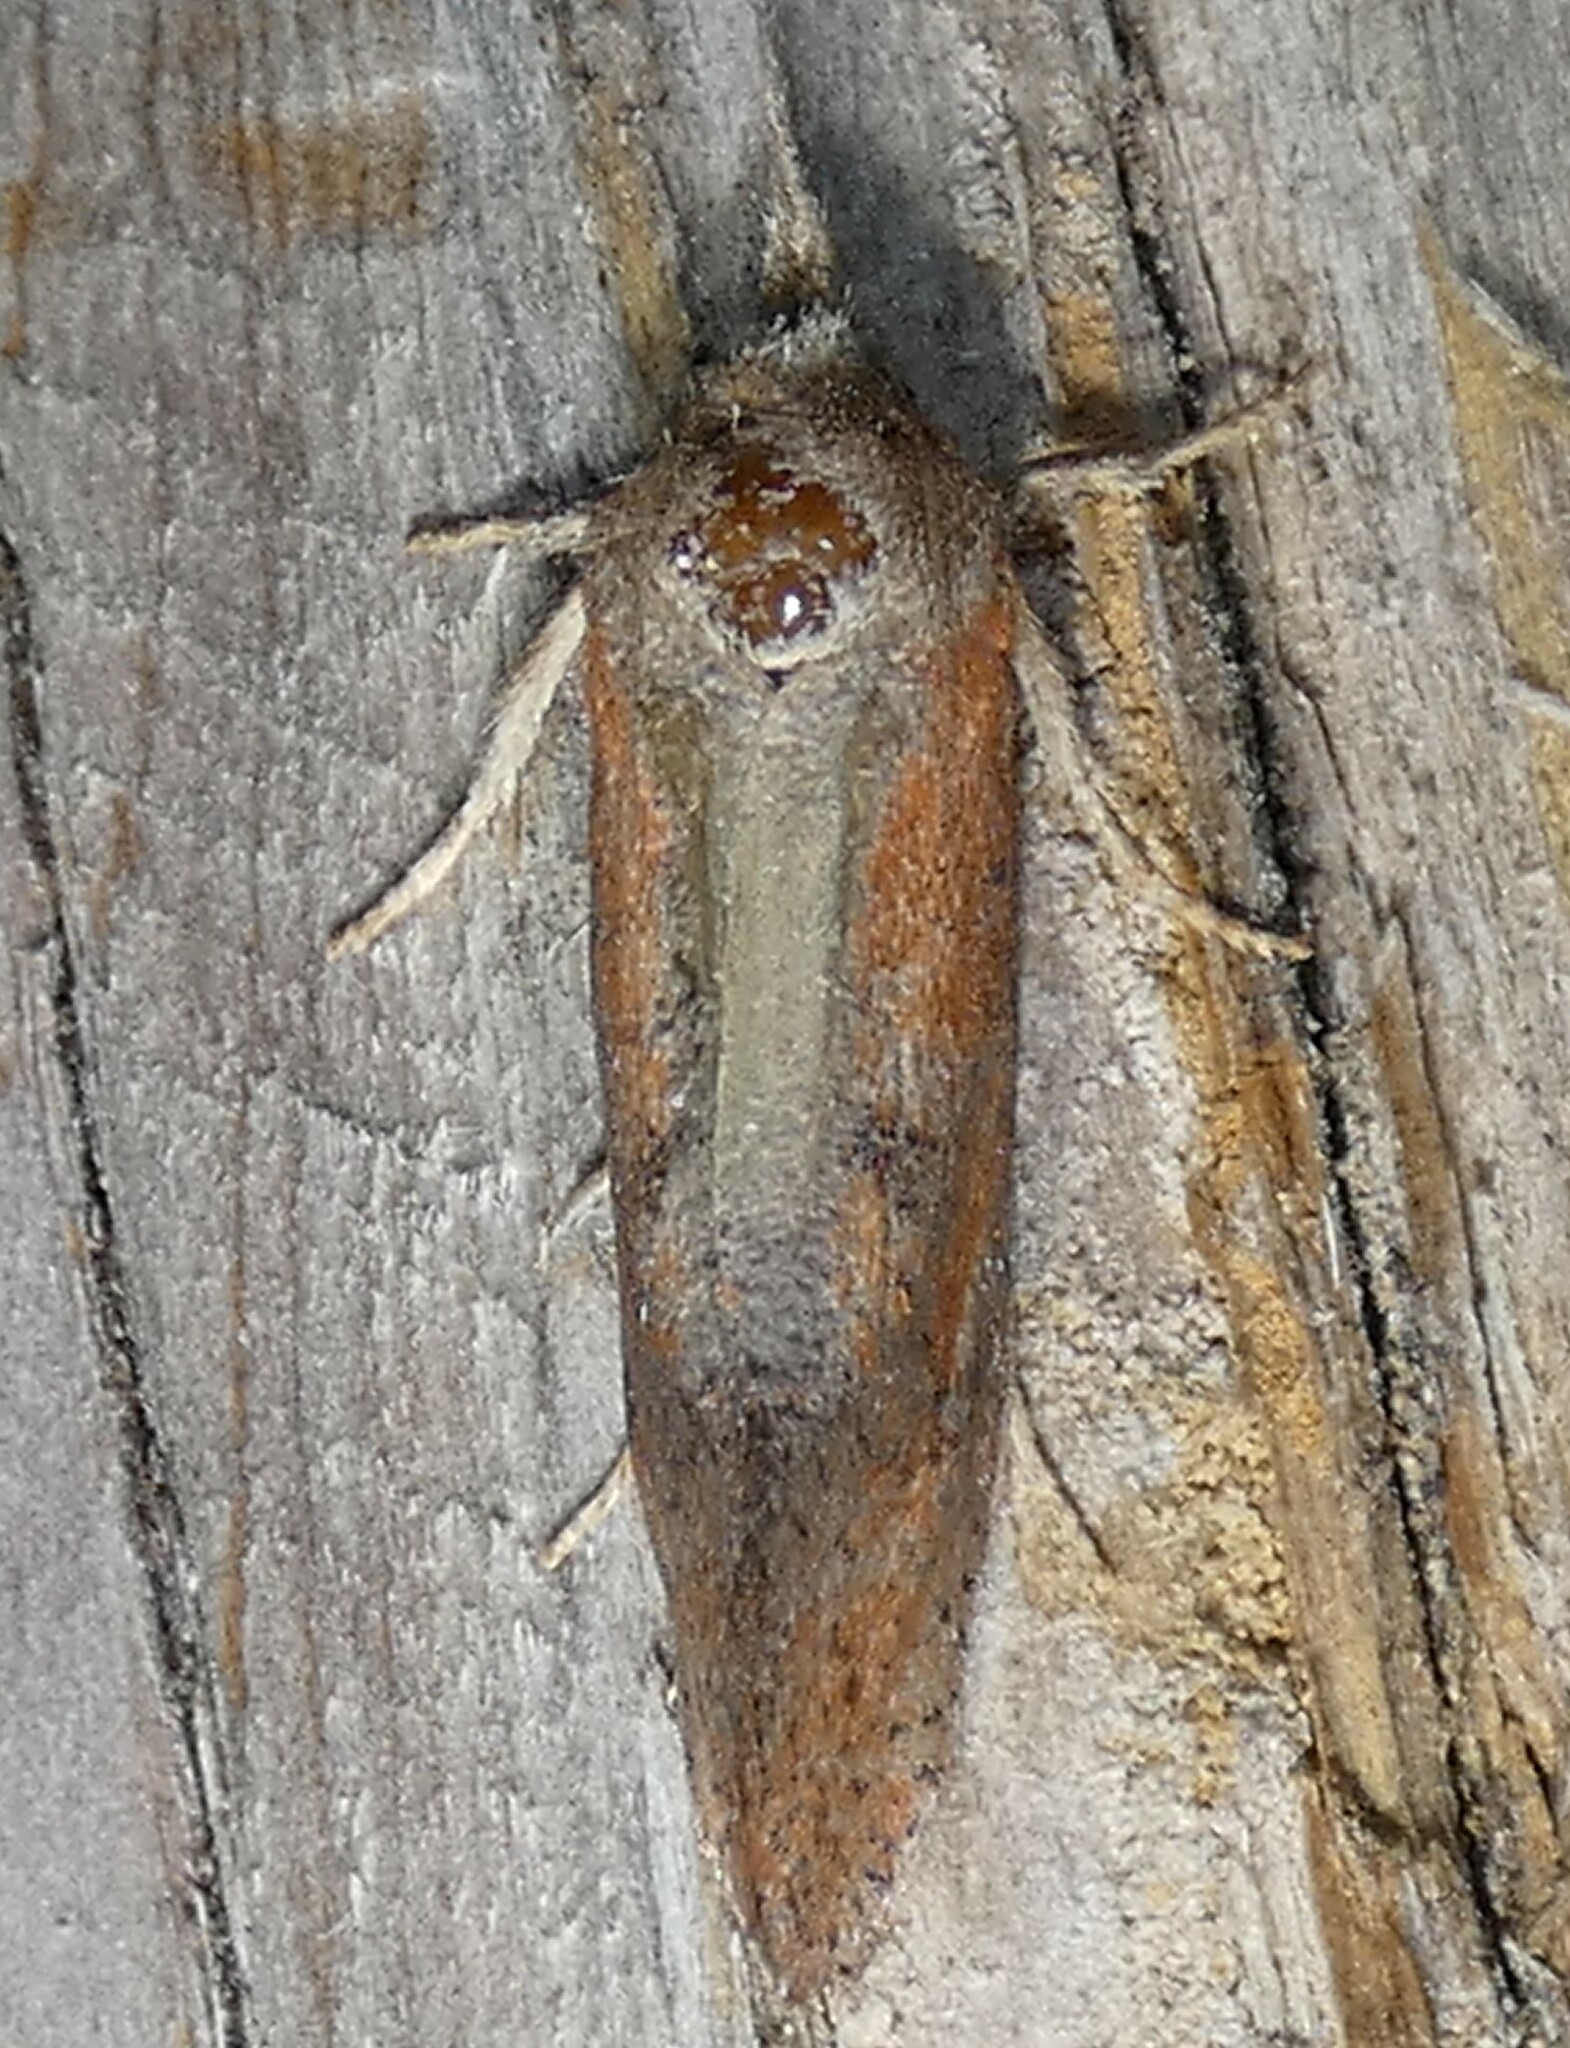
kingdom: Animalia
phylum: Arthropoda
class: Insecta
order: Lepidoptera
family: Tineidae
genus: Acrolophus
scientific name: Acrolophus plumifrontella
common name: Eastern grass tubeworm moth
